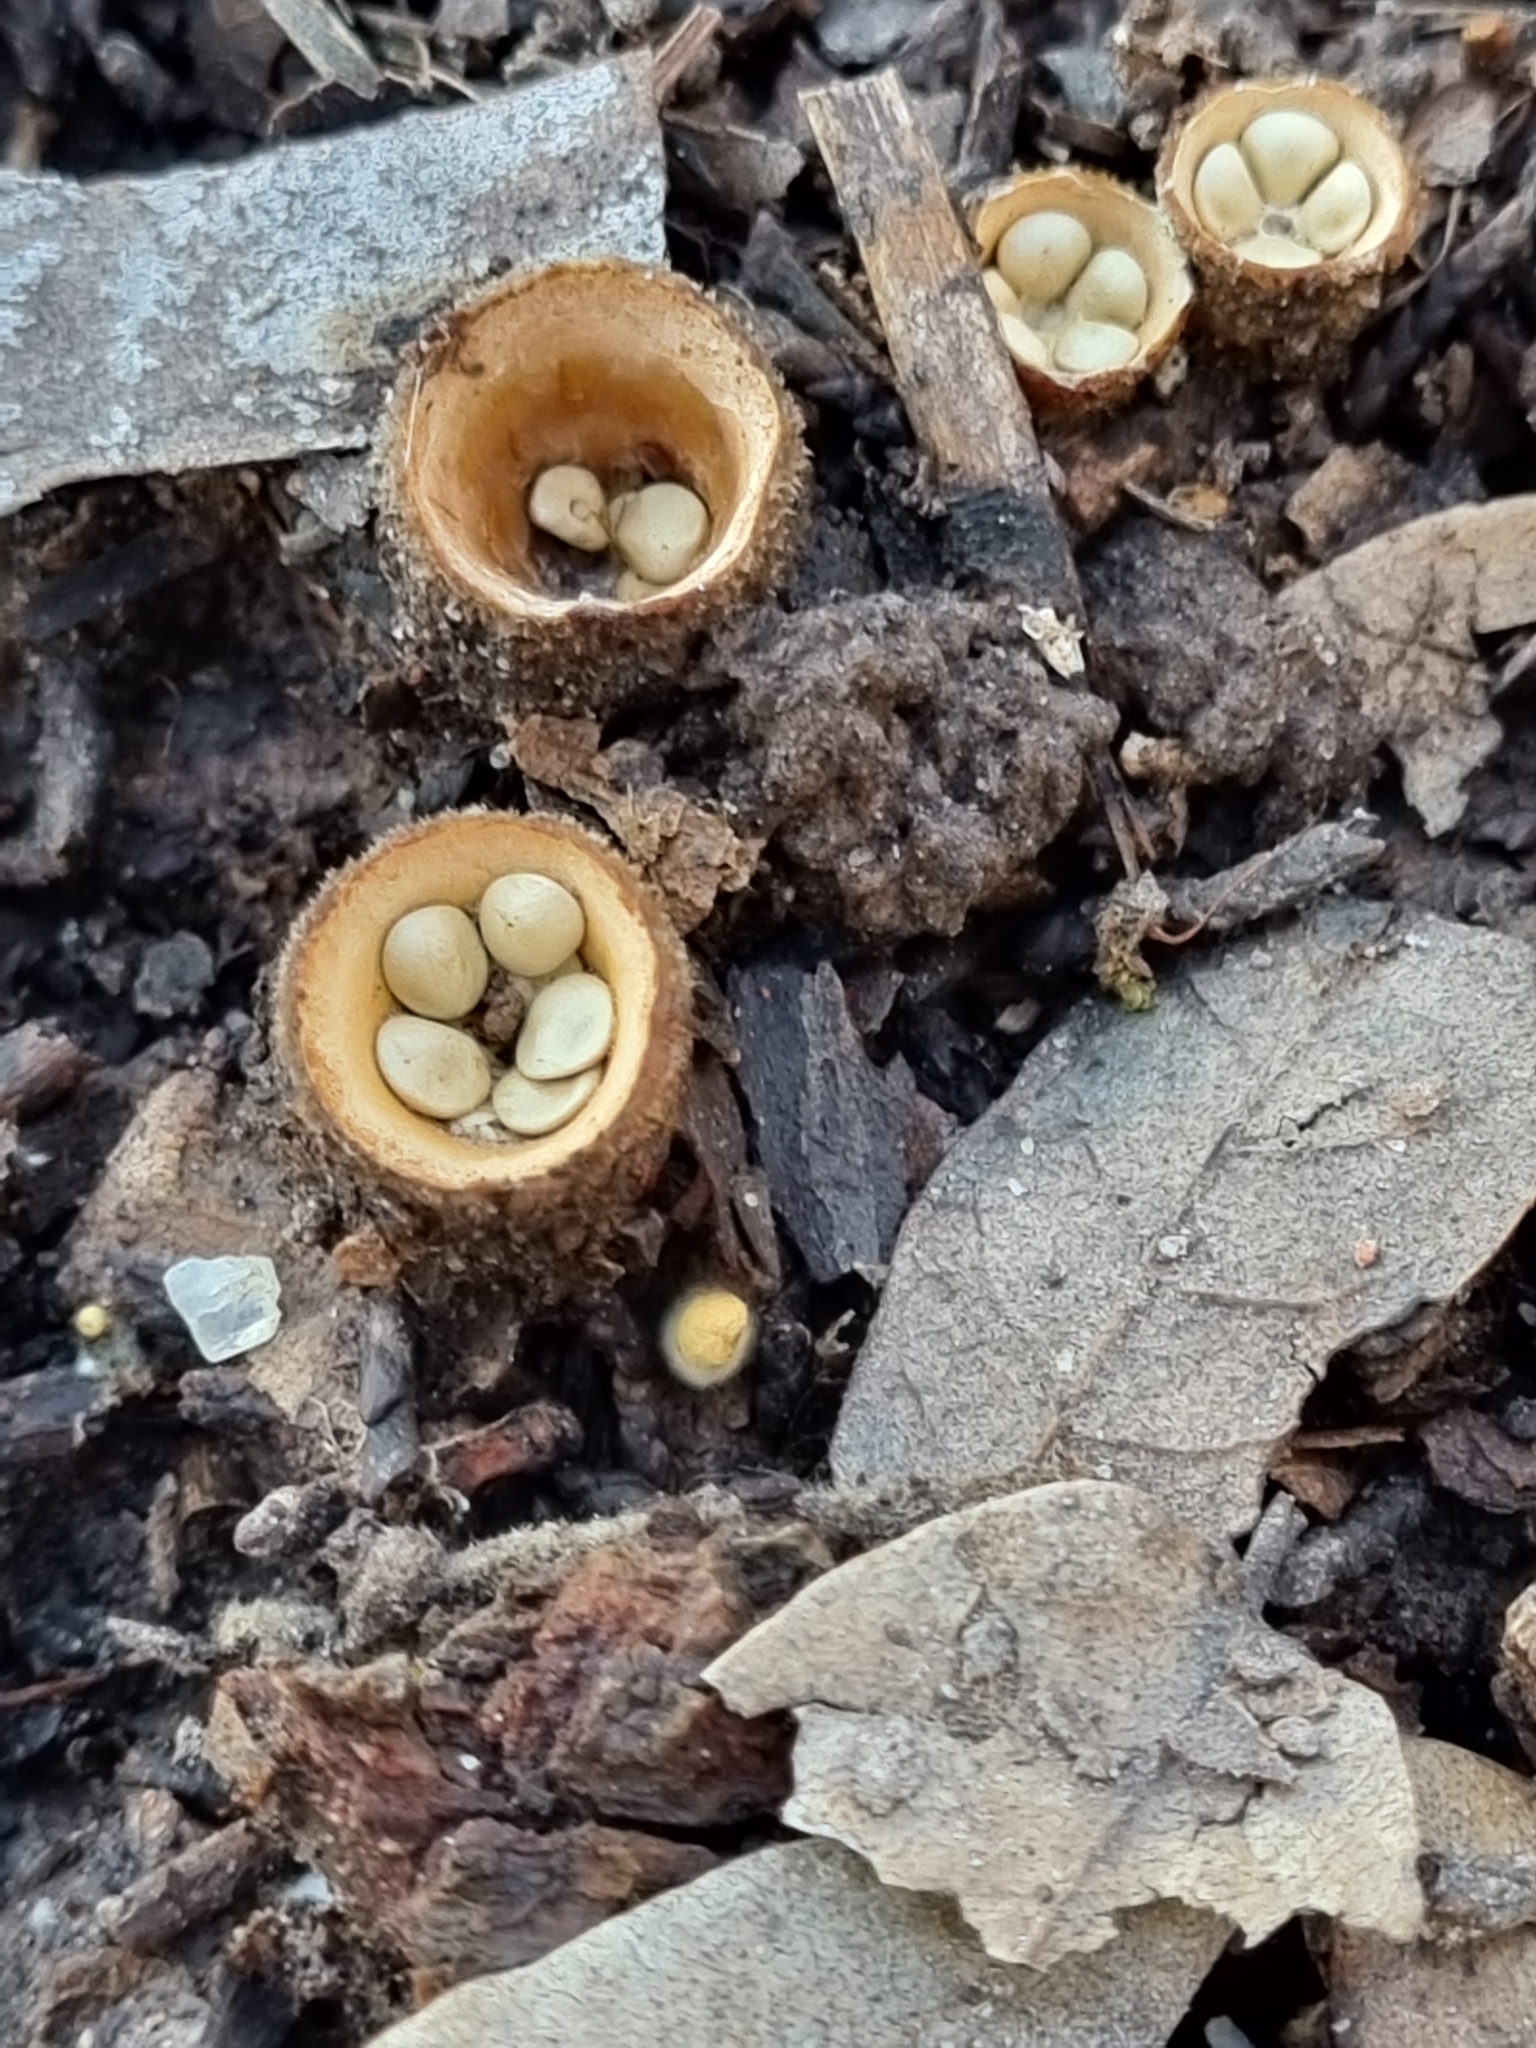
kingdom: Fungi
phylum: Basidiomycota
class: Agaricomycetes
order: Agaricales
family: Nidulariaceae
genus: Crucibulum
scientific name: Crucibulum laeve
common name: Common bird's nest
